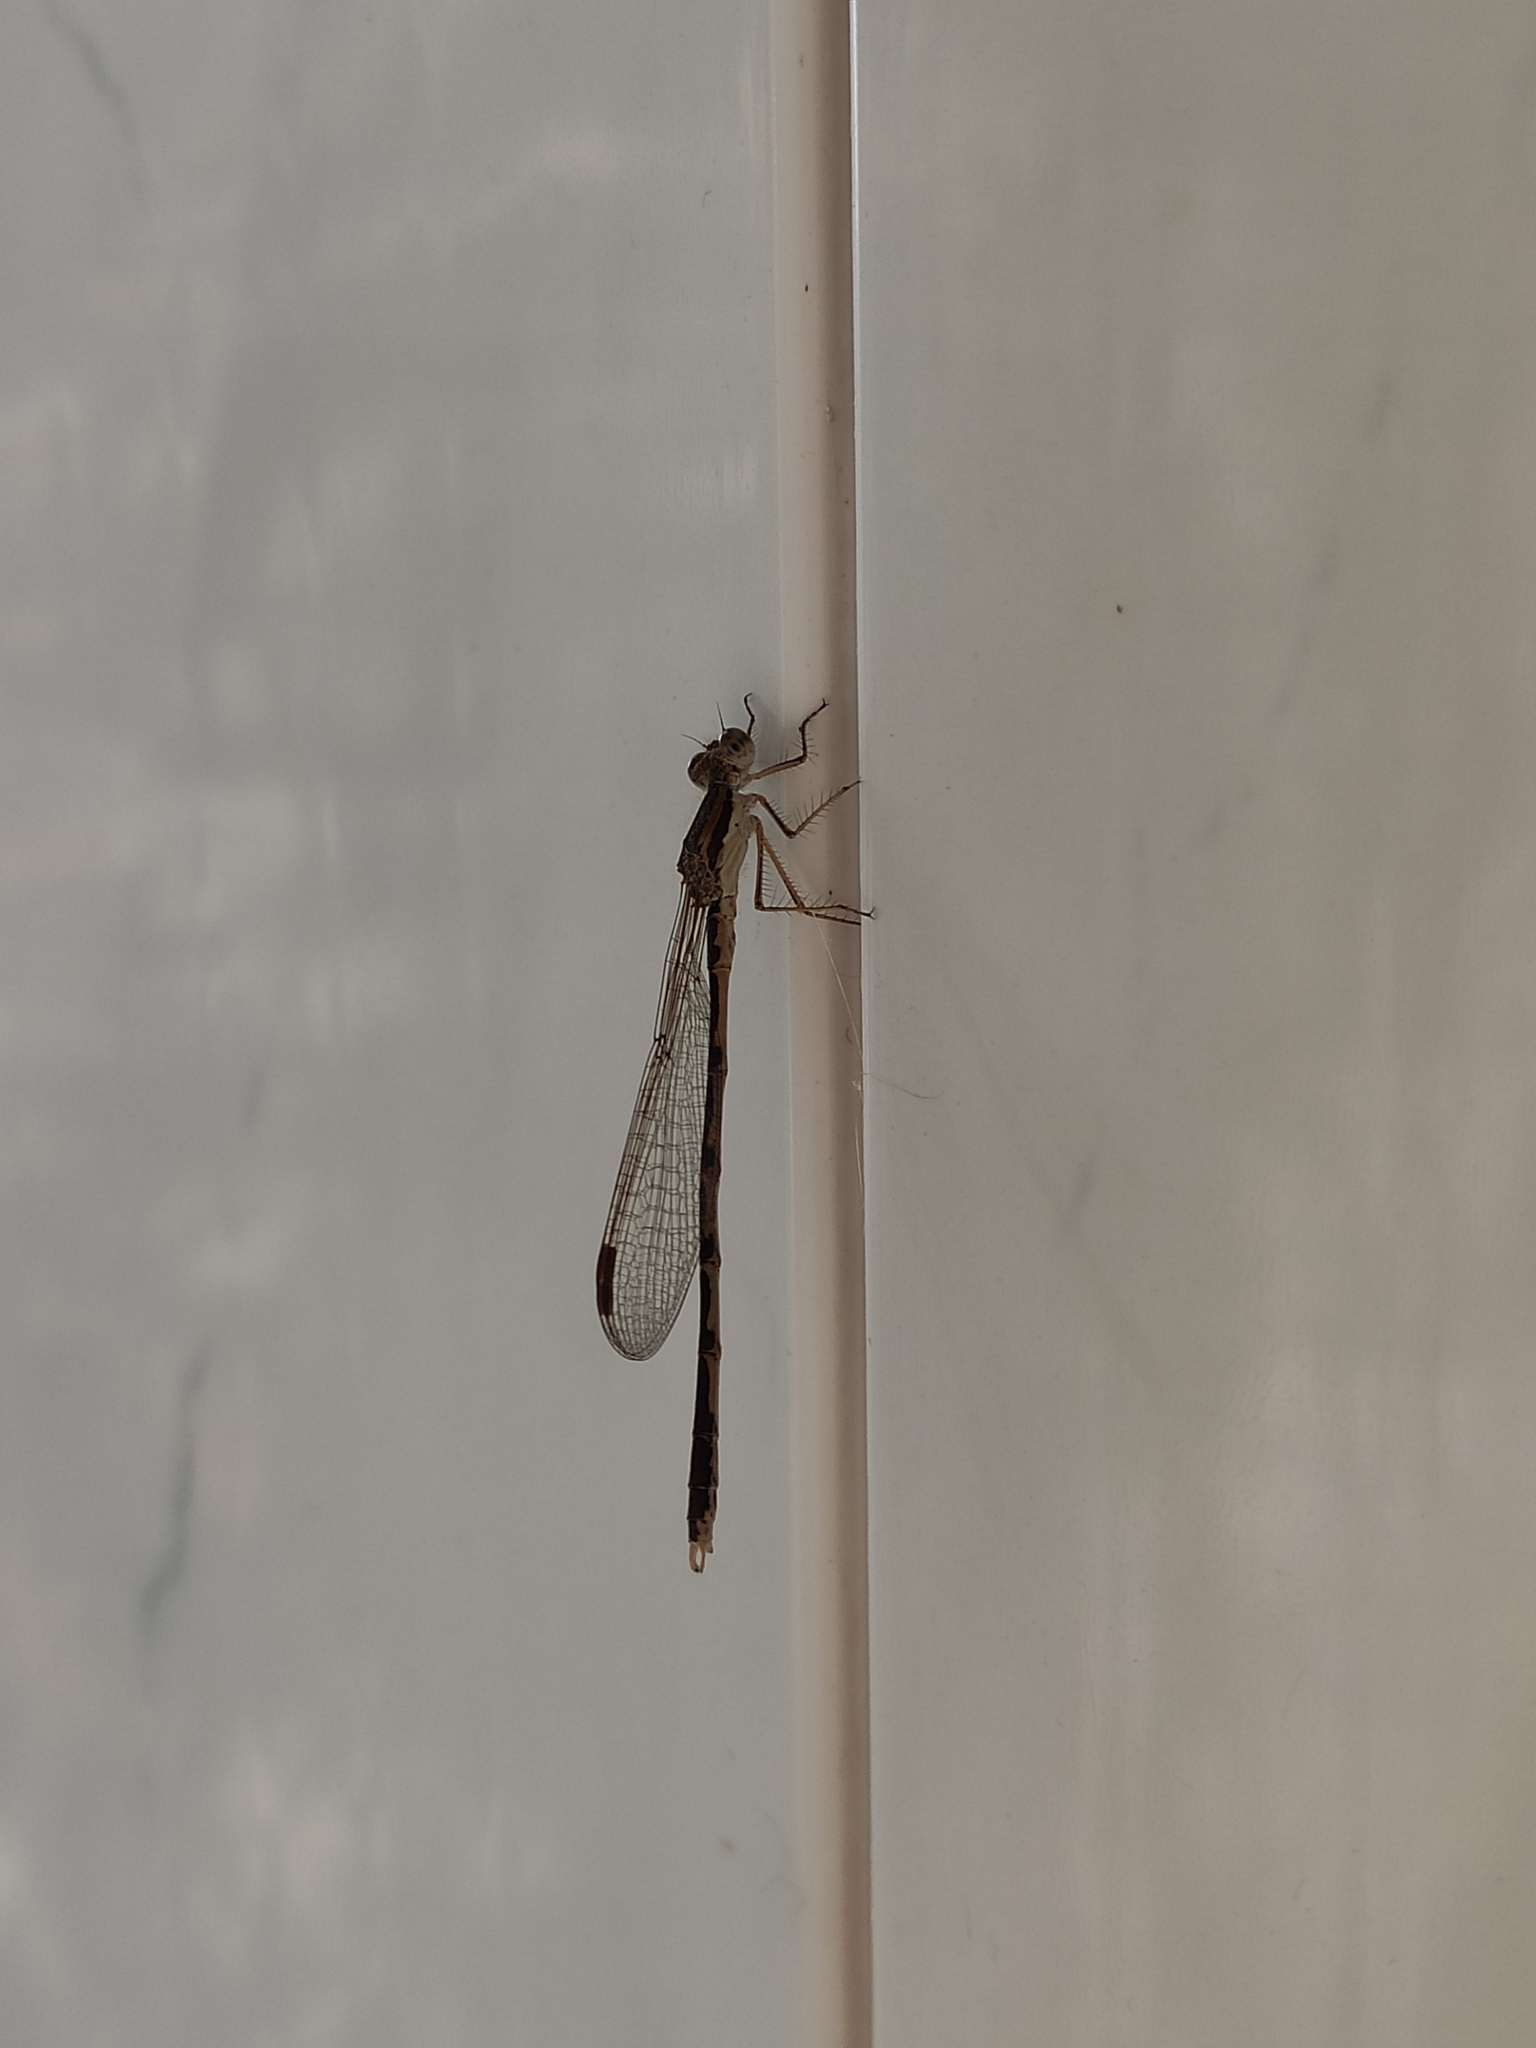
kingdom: Animalia
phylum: Arthropoda
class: Insecta
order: Odonata
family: Lestidae
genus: Sympecma
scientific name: Sympecma fusca
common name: Common winter damsel
